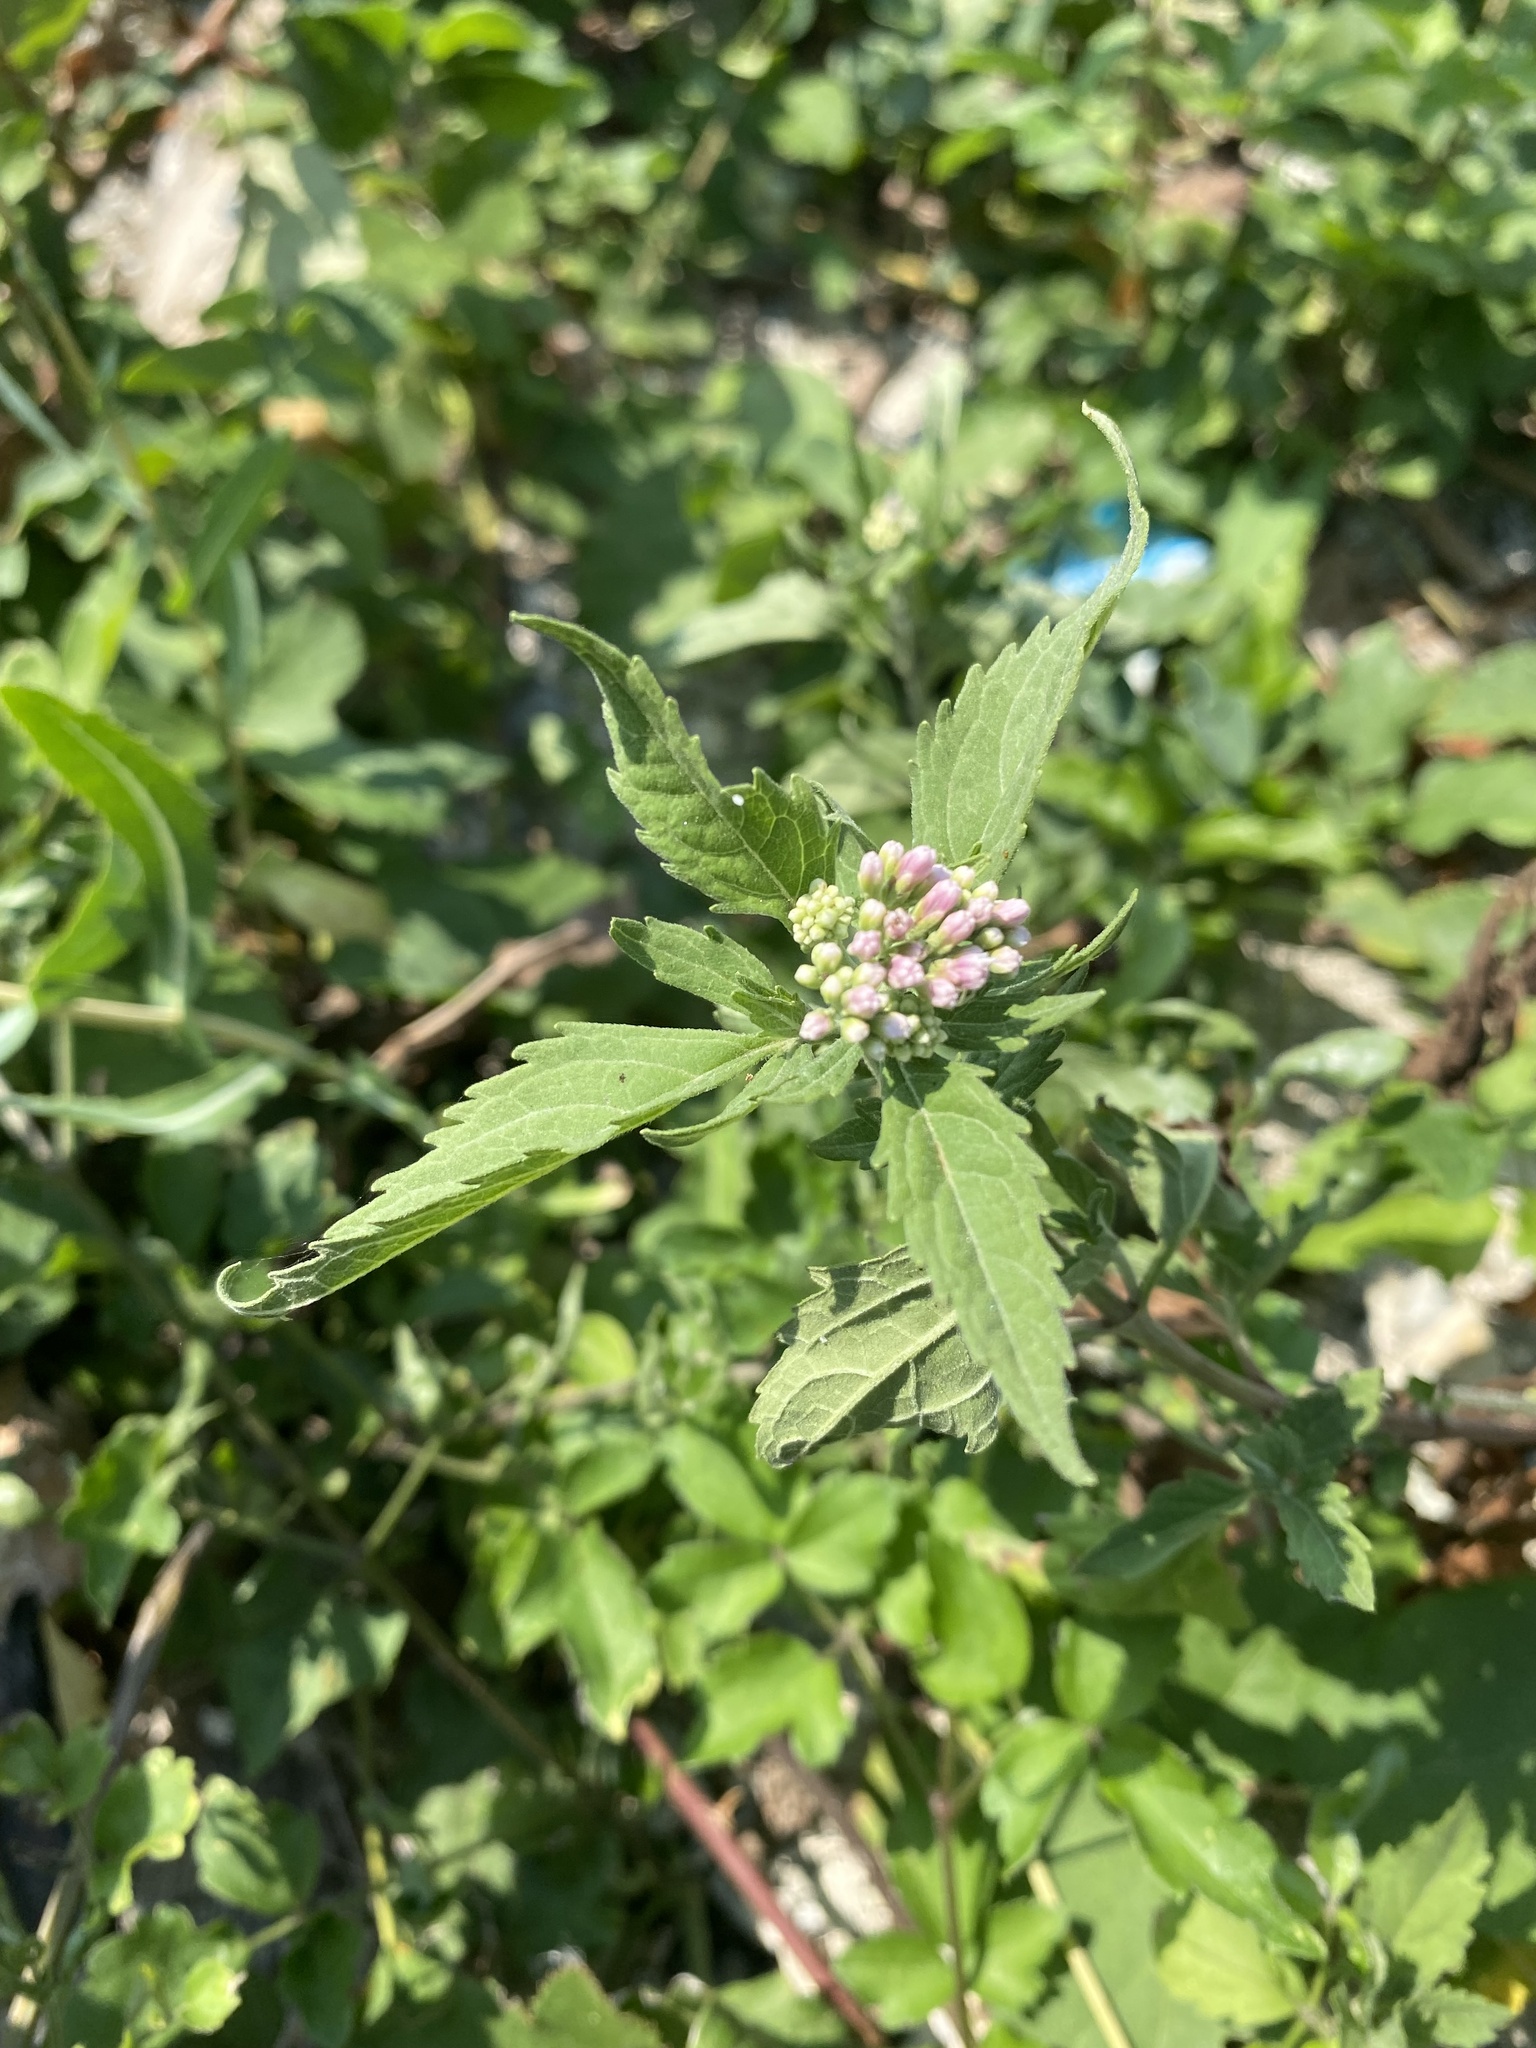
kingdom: Plantae
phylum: Tracheophyta
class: Magnoliopsida
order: Asterales
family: Asteraceae
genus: Eupatorium
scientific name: Eupatorium cannabinum
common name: Hemp-agrimony
